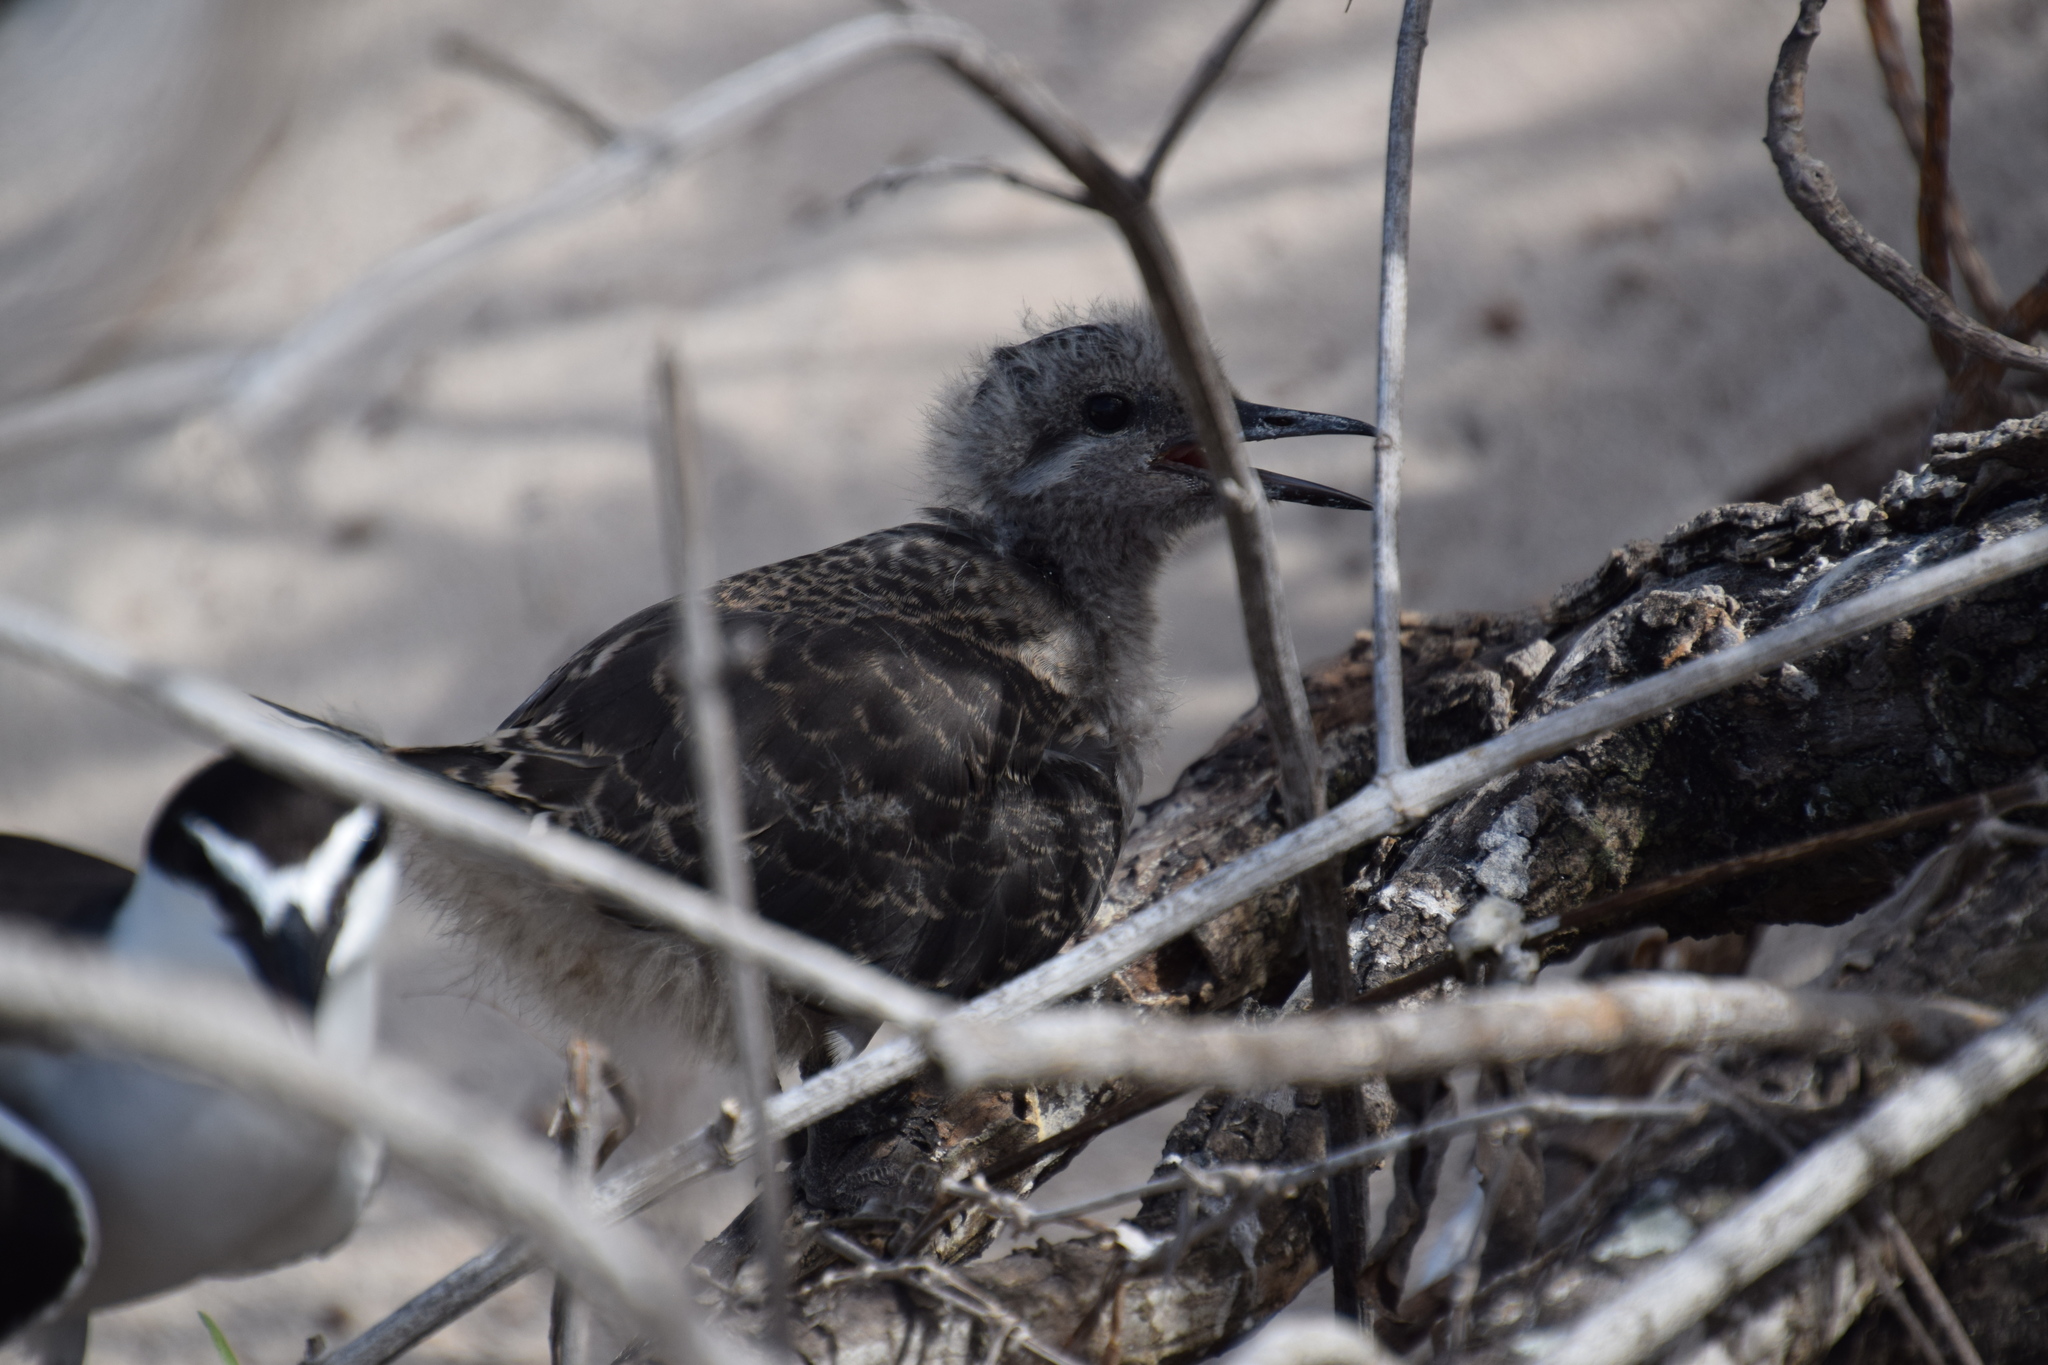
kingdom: Animalia
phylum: Chordata
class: Aves
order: Charadriiformes
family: Laridae
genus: Onychoprion
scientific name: Onychoprion anaethetus
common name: Bridled tern
